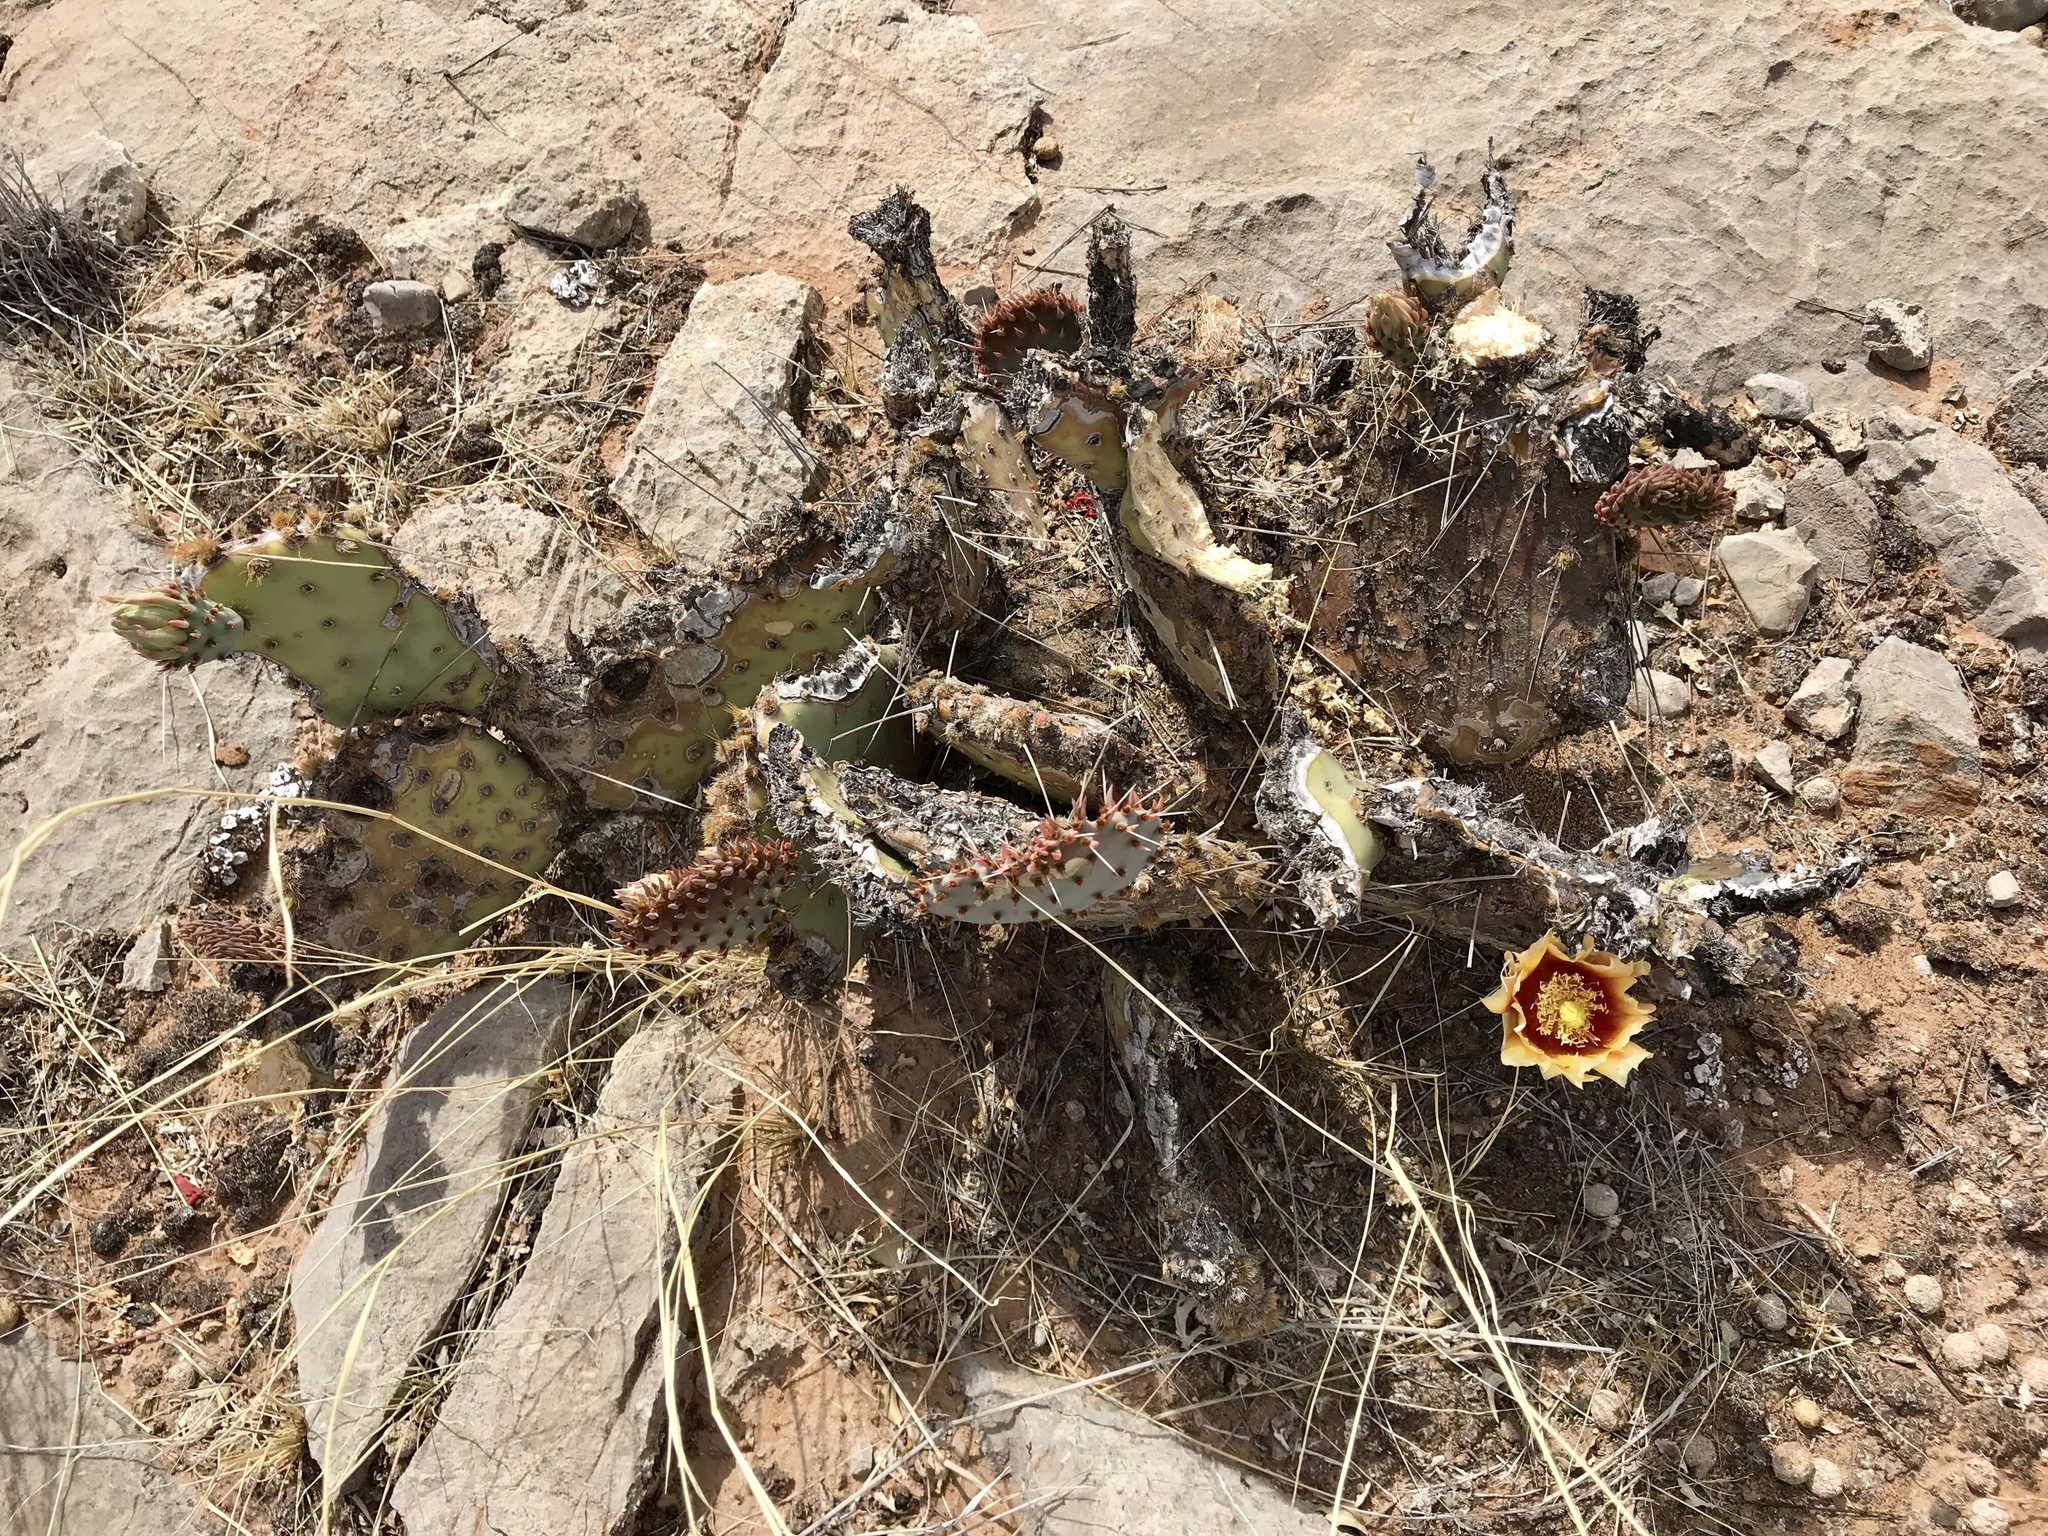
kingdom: Plantae
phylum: Tracheophyta
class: Magnoliopsida
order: Caryophyllales
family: Cactaceae
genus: Opuntia
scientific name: Opuntia macrocentra
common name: Purple prickly-pear
